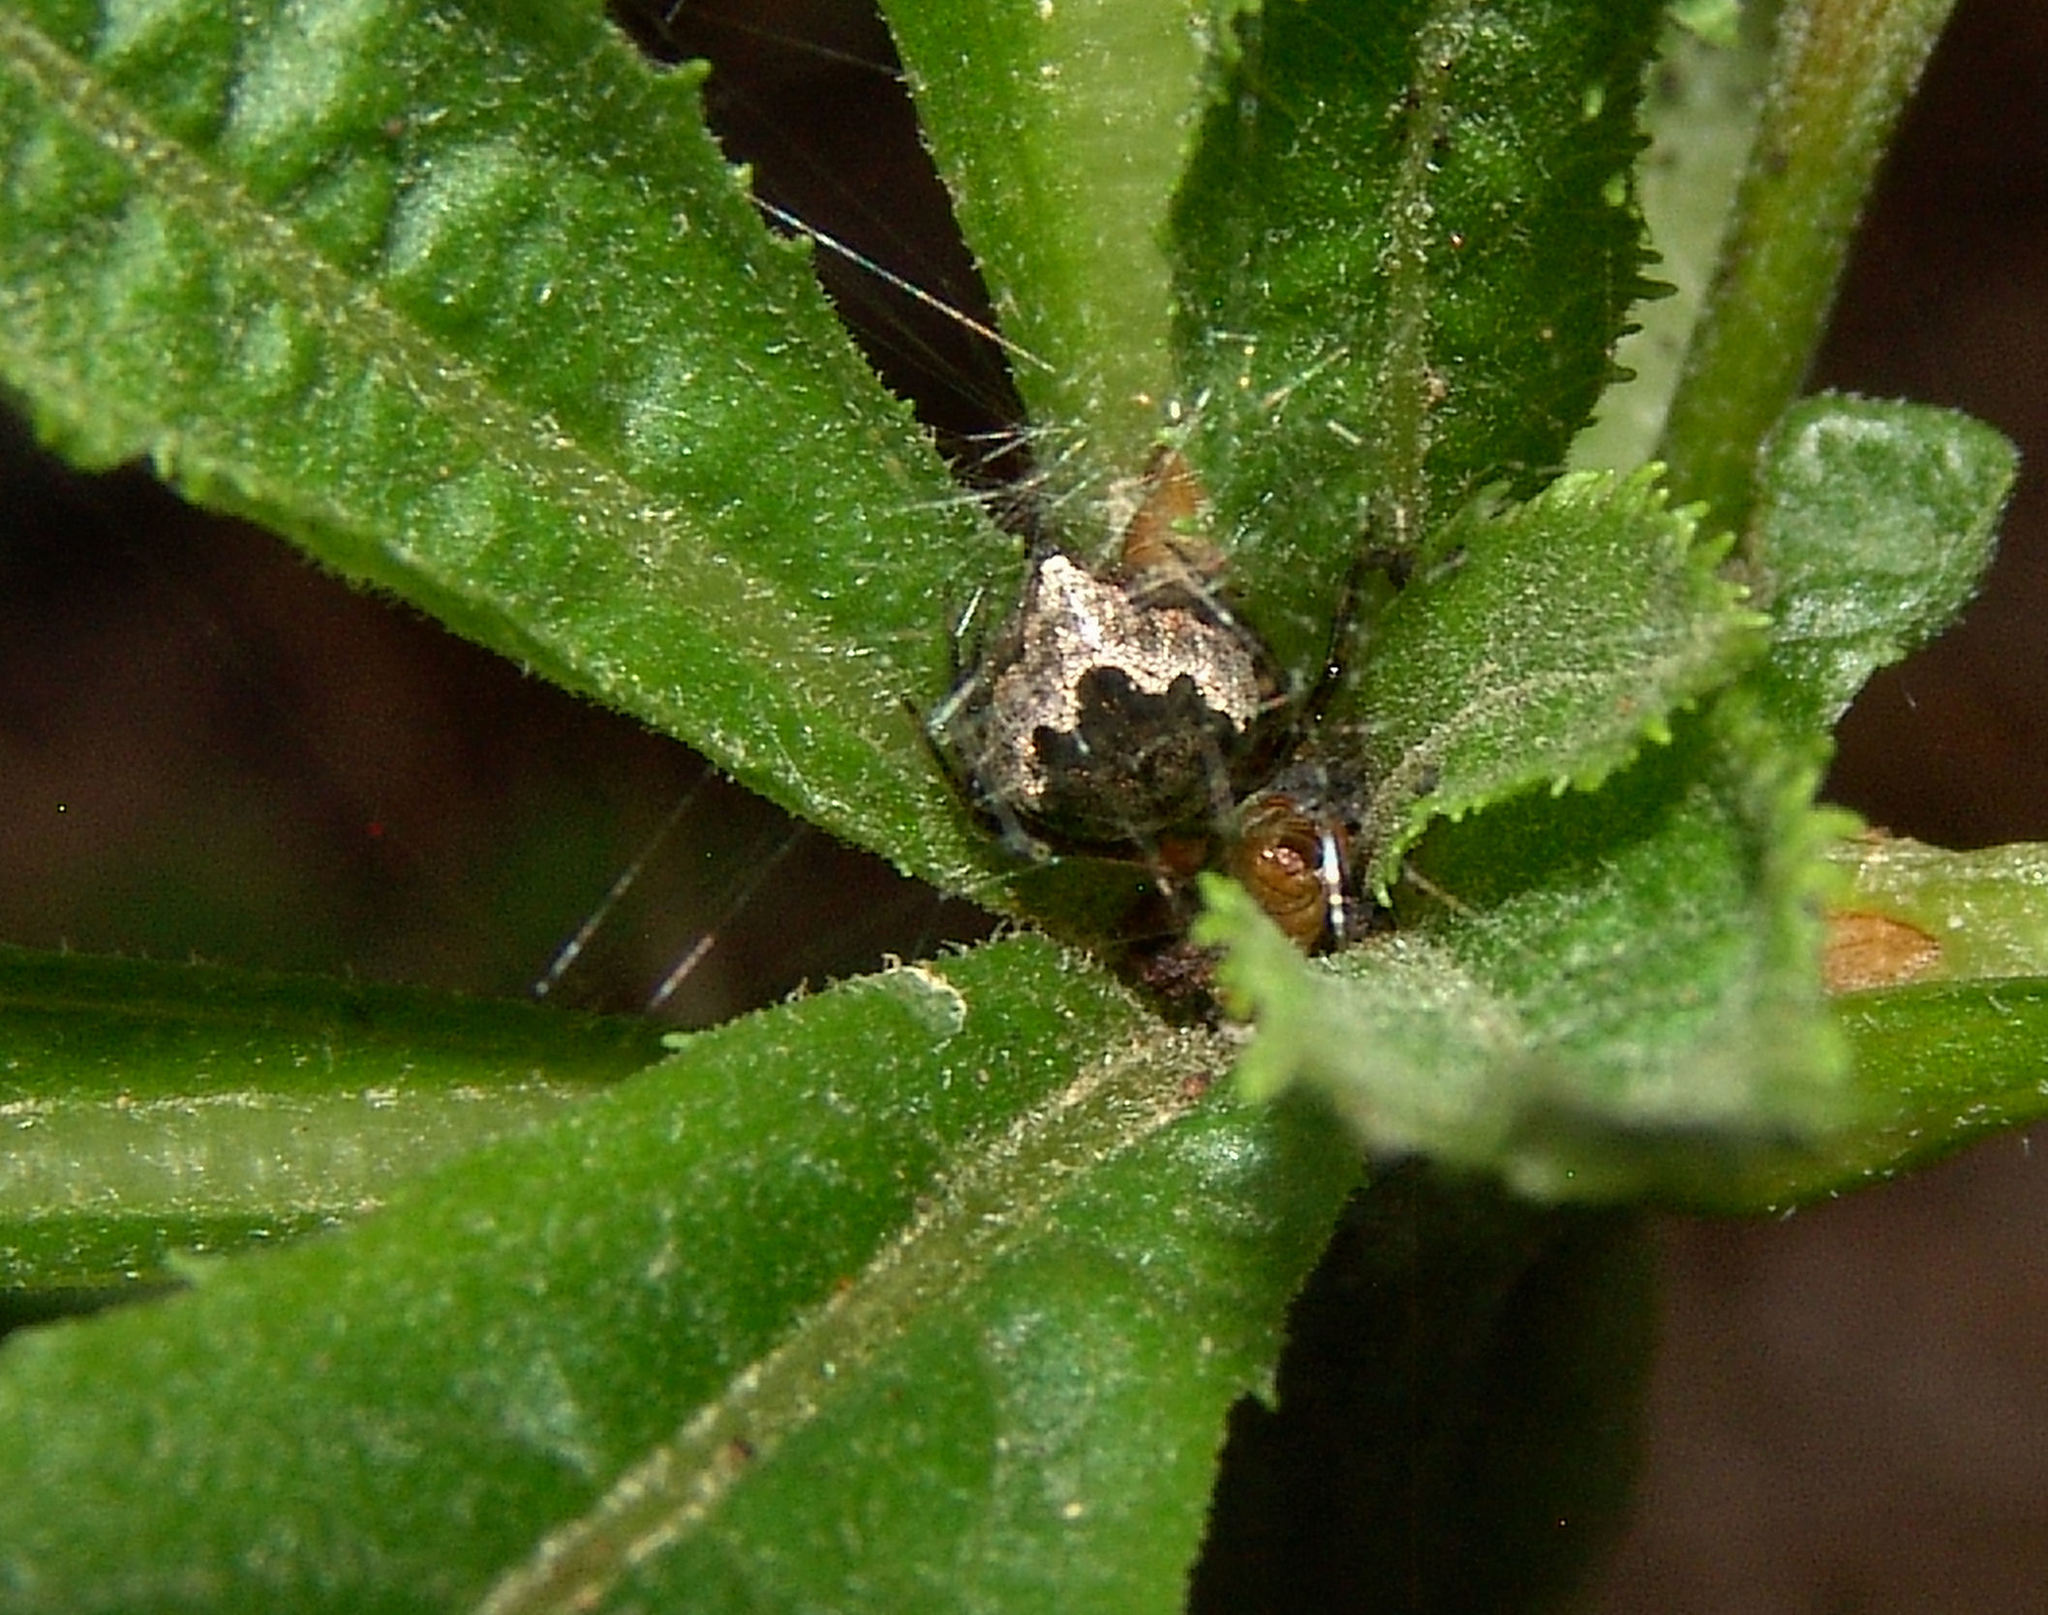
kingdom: Animalia
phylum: Arthropoda
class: Arachnida
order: Araneae
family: Theridiidae
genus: Euryopis
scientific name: Euryopis funebris
